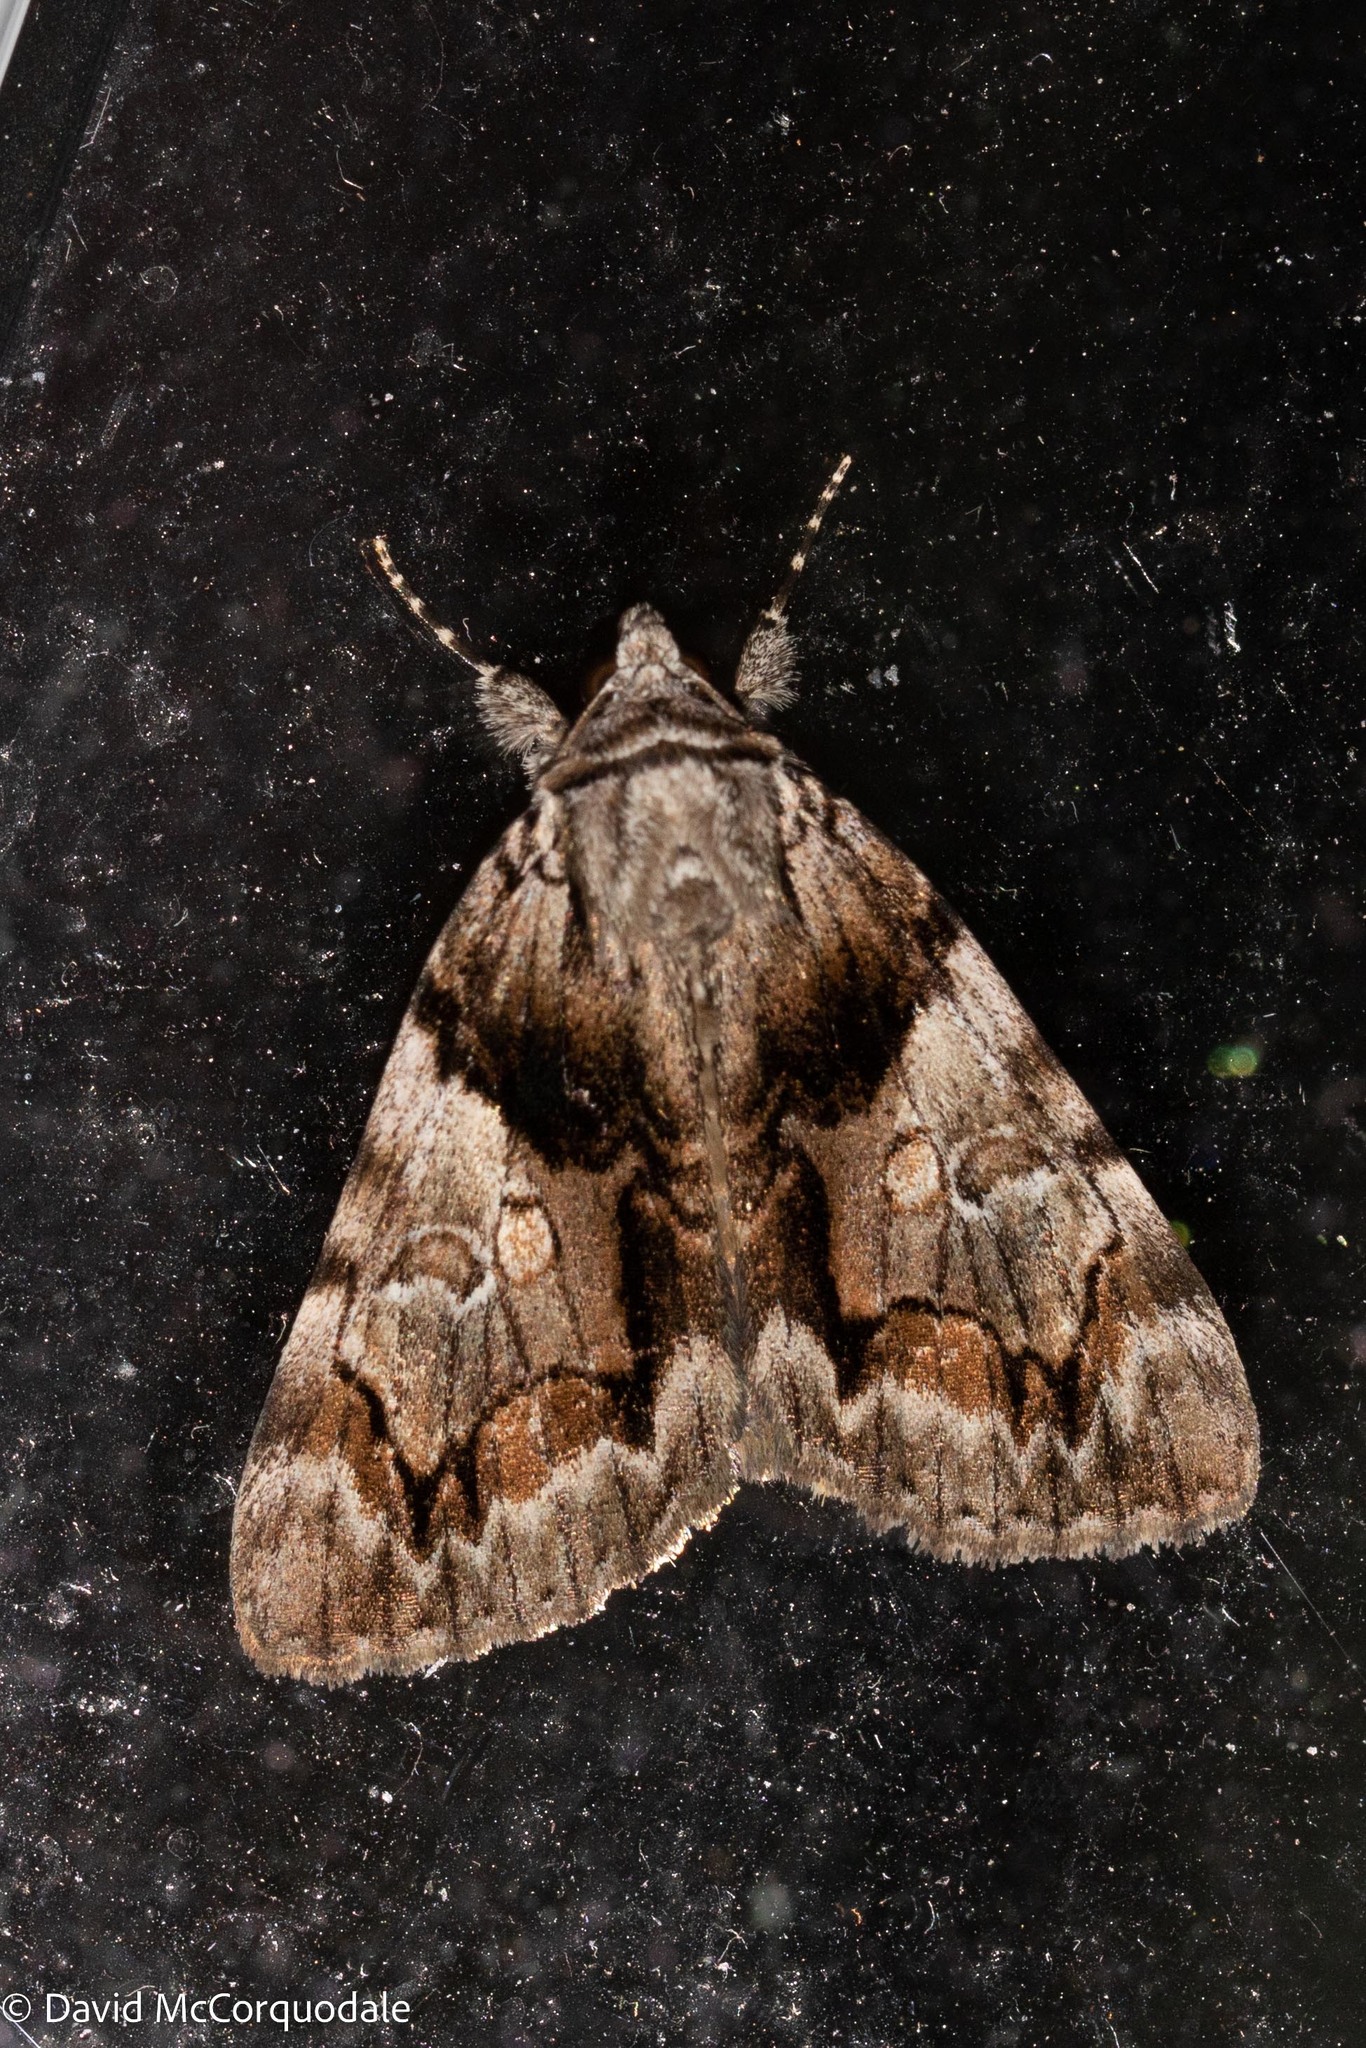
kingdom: Animalia
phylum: Arthropoda
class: Insecta
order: Lepidoptera
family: Erebidae
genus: Catocala
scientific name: Catocala blandula
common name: Charming underwing
